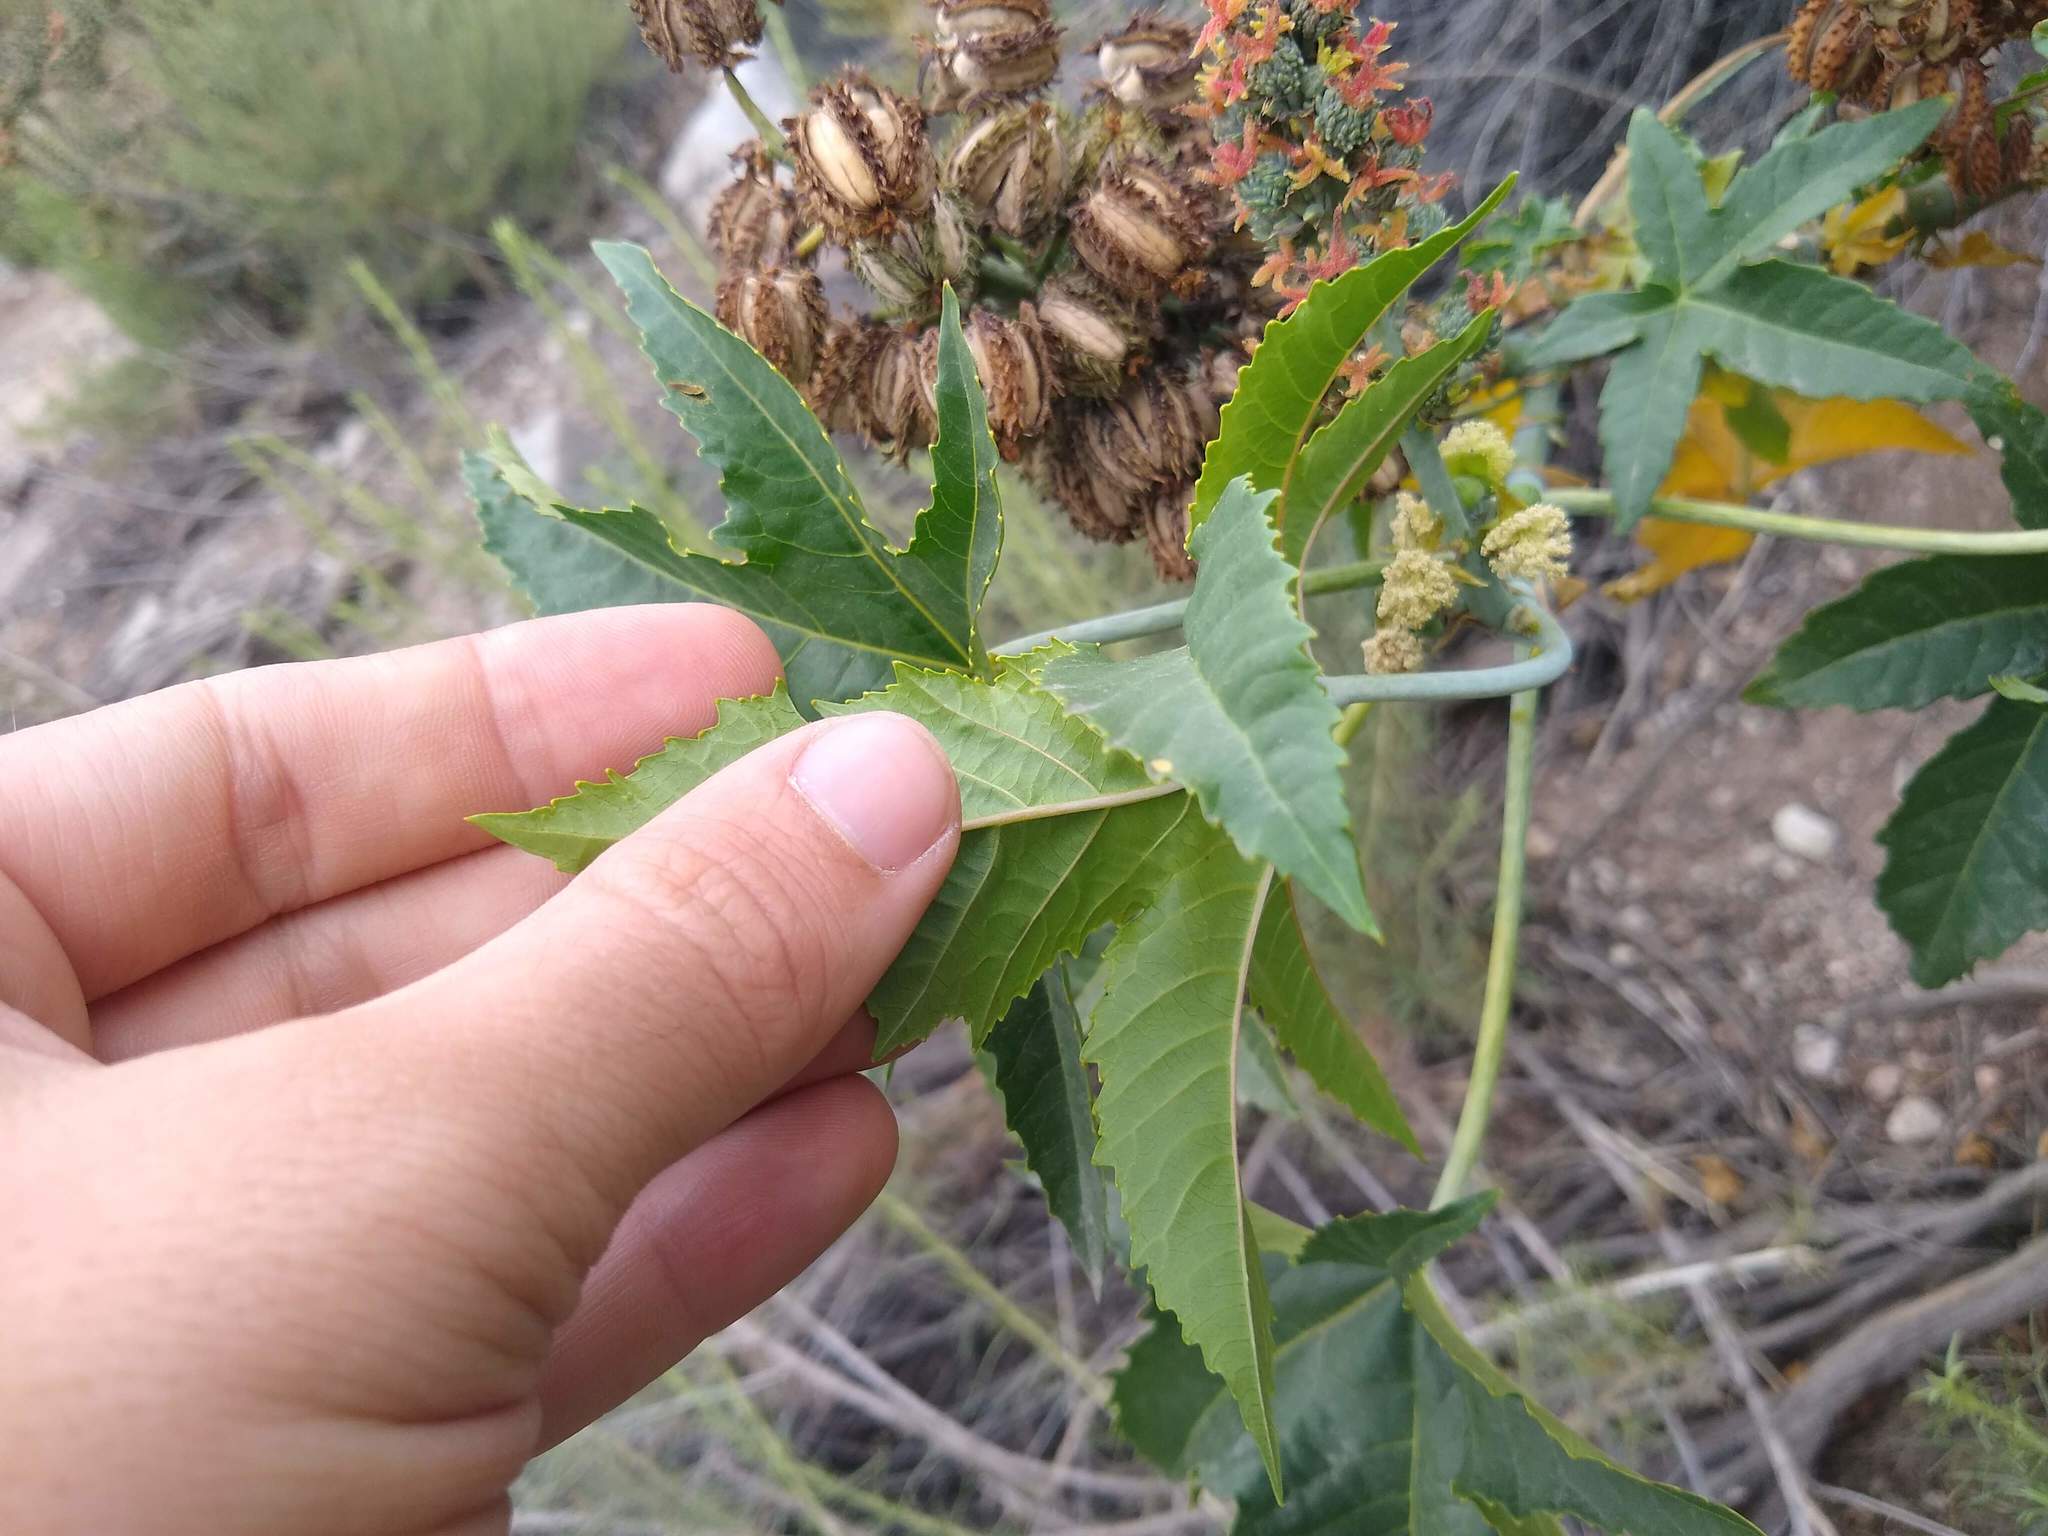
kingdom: Plantae
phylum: Tracheophyta
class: Magnoliopsida
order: Malpighiales
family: Euphorbiaceae
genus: Ricinus
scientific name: Ricinus communis
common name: Castor-oil-plant
